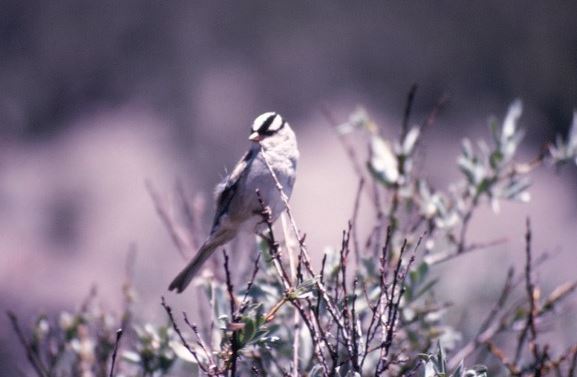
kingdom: Animalia
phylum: Chordata
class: Aves
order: Passeriformes
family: Passerellidae
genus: Zonotrichia
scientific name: Zonotrichia leucophrys
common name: White-crowned sparrow
